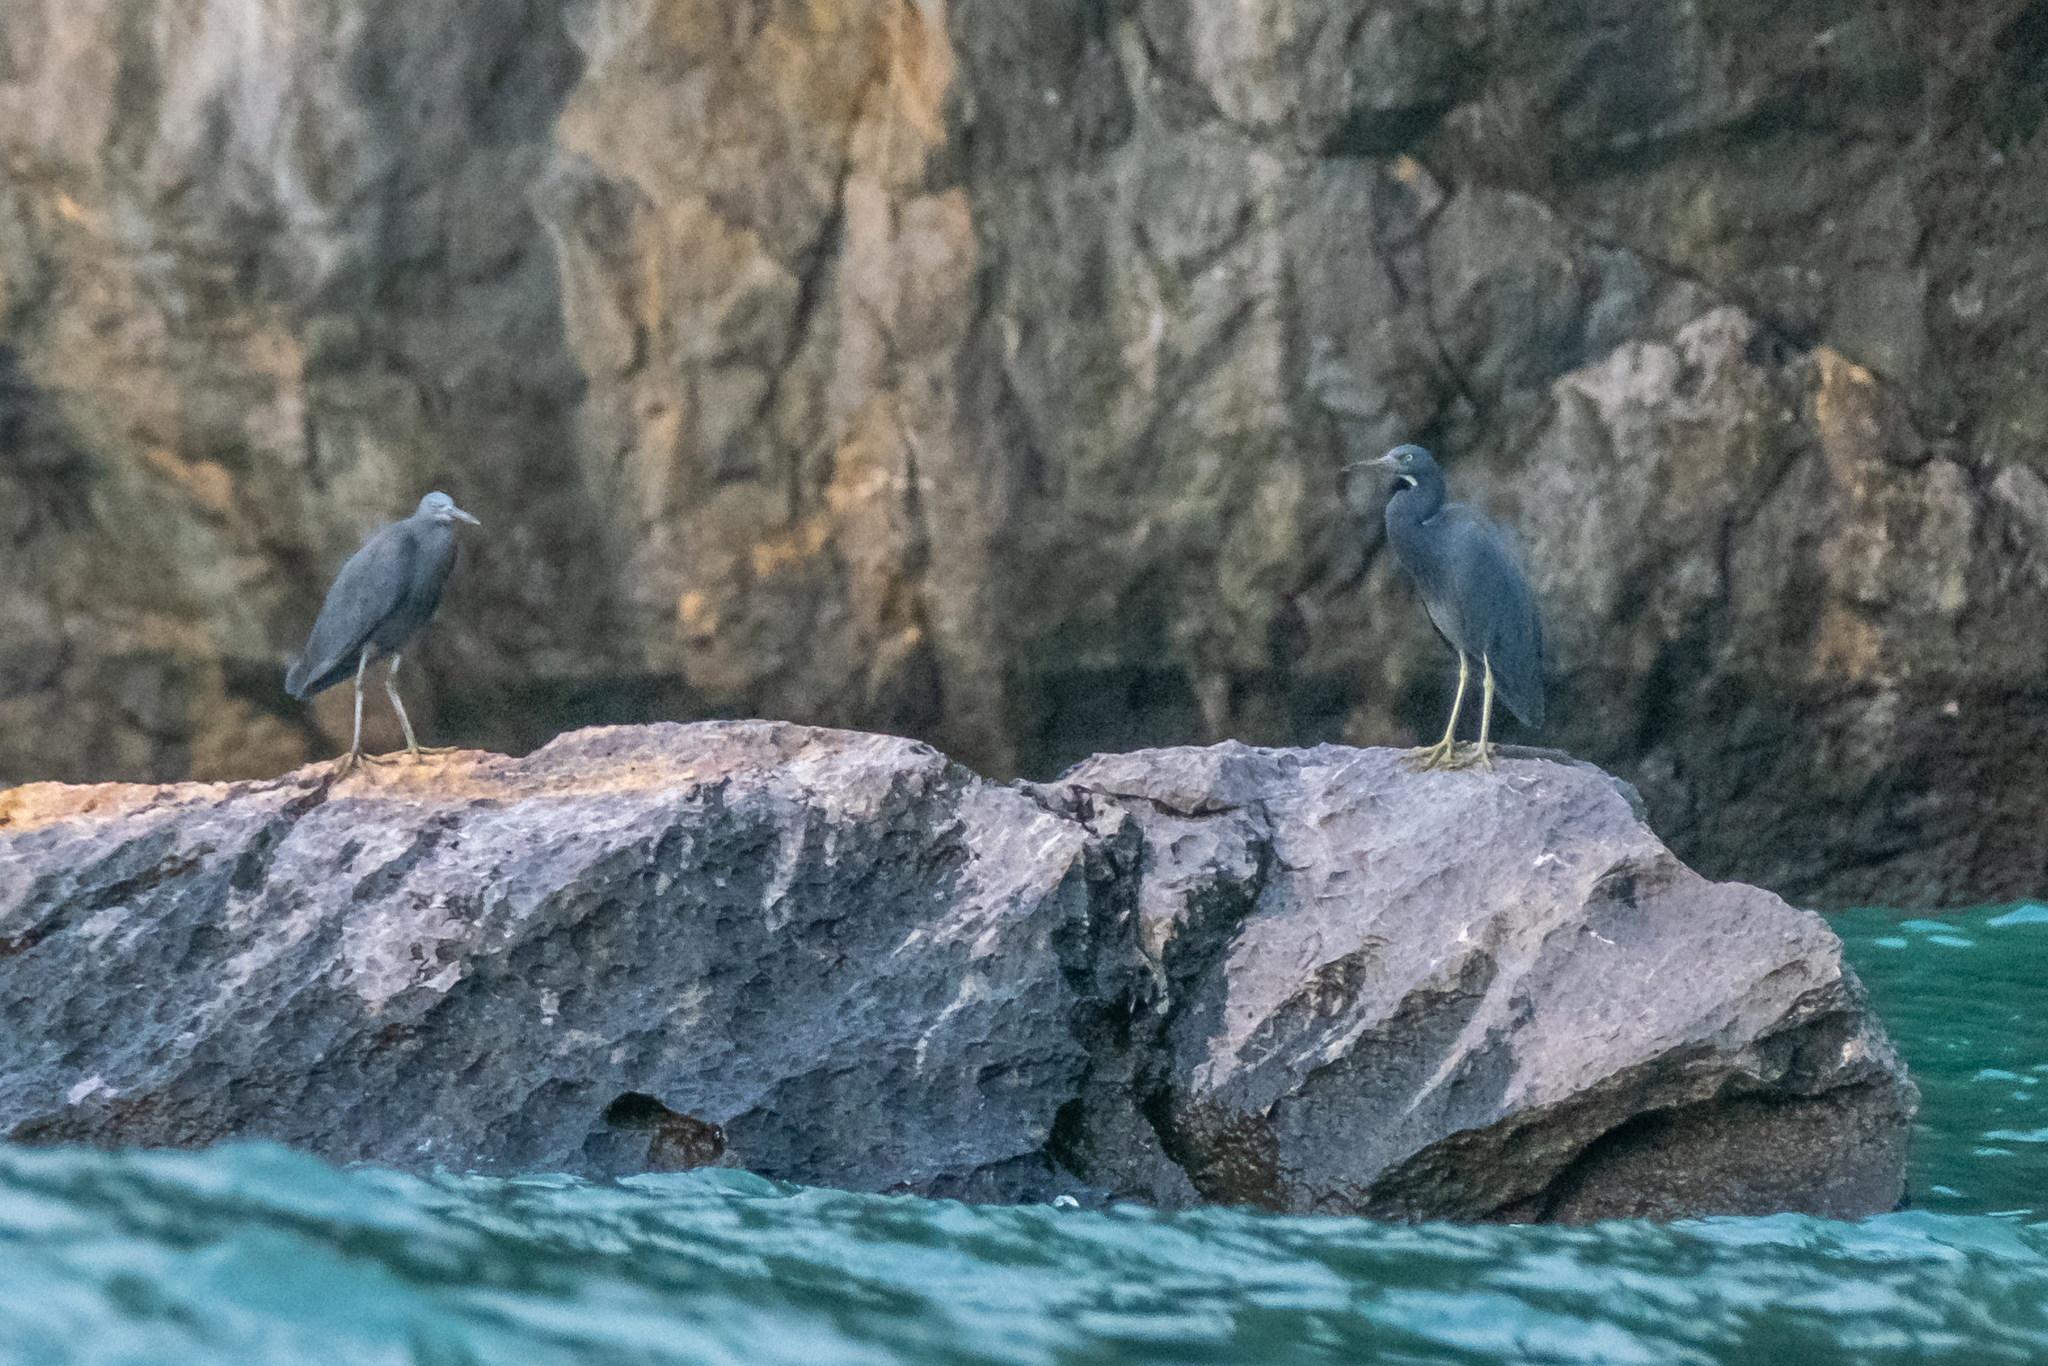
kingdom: Animalia
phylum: Chordata
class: Aves
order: Pelecaniformes
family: Ardeidae
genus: Egretta
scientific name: Egretta sacra
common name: Pacific reef heron
